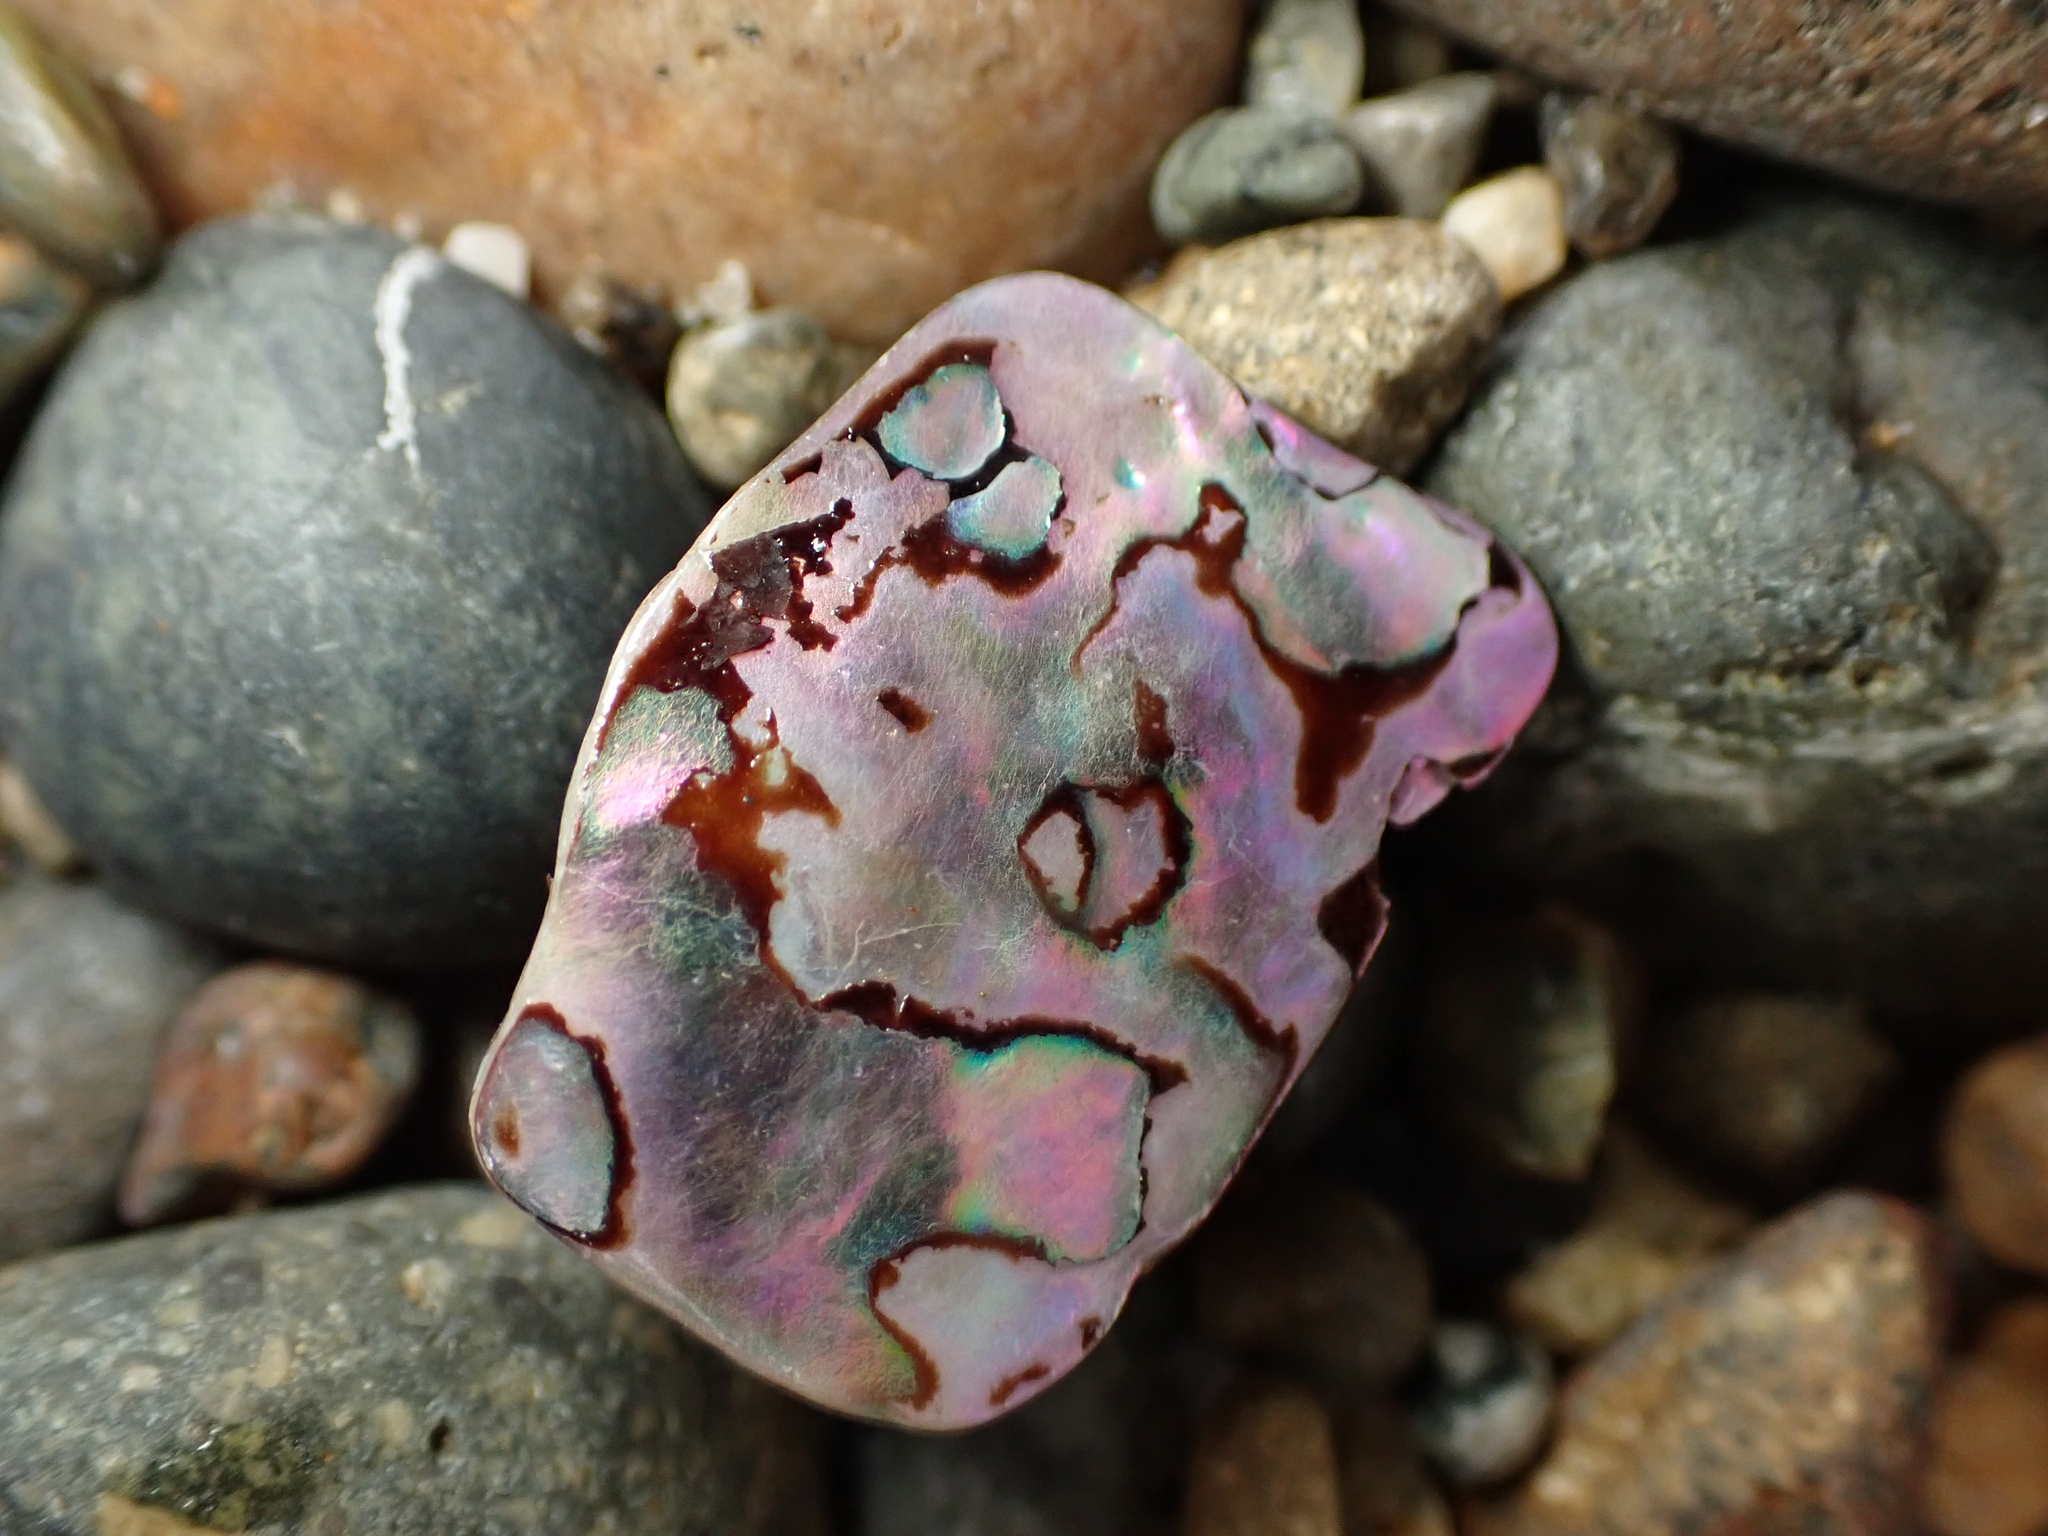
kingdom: Animalia
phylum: Mollusca
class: Gastropoda
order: Lepetellida
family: Haliotidae
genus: Haliotis
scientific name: Haliotis iris
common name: Abalone
